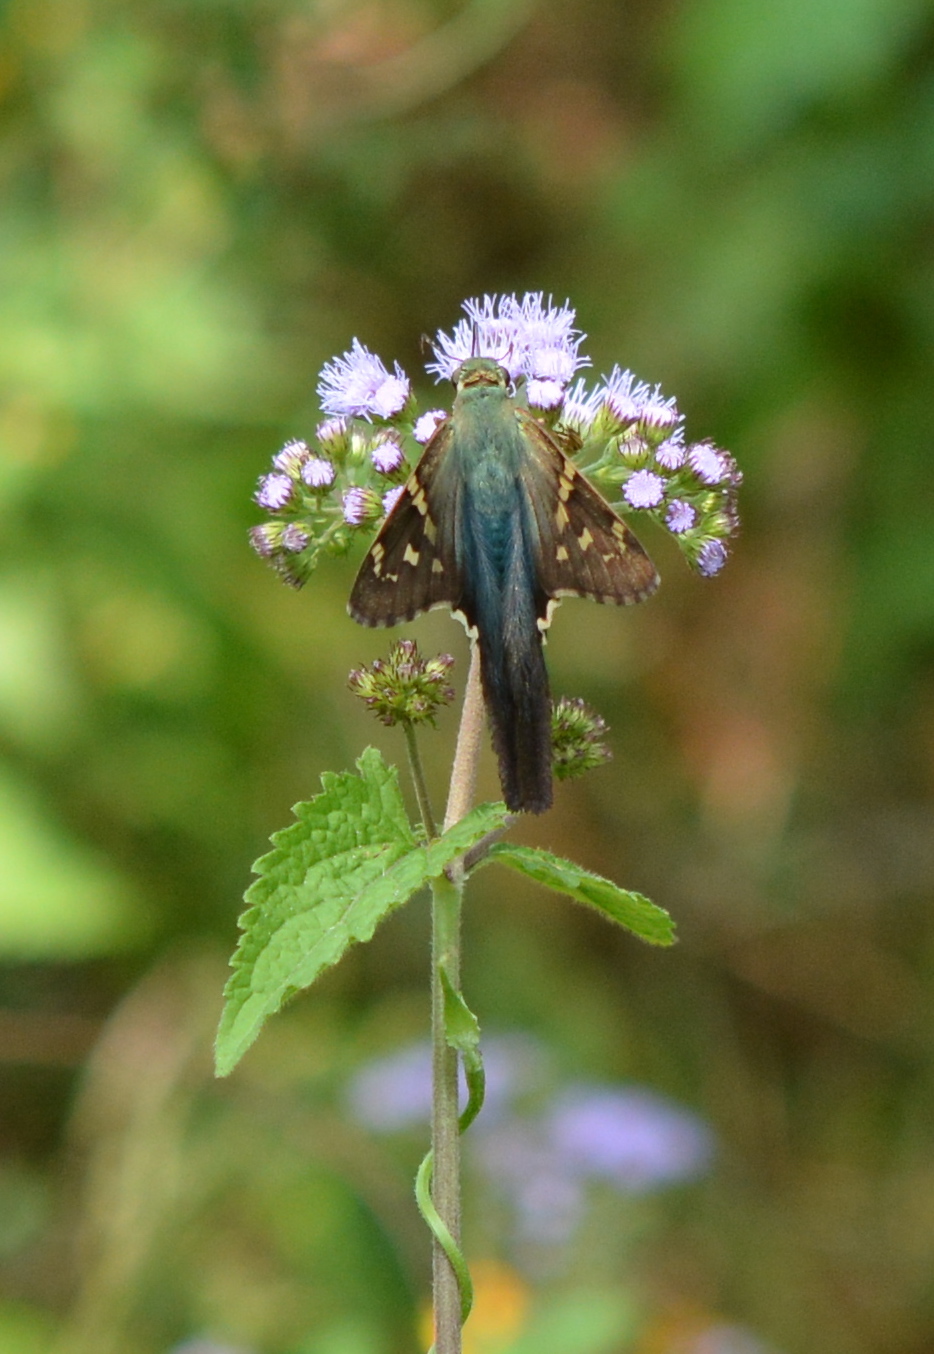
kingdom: Animalia
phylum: Arthropoda
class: Insecta
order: Lepidoptera
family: Hesperiidae
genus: Urbanus
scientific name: Urbanus proteus
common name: Long-tailed skipper
